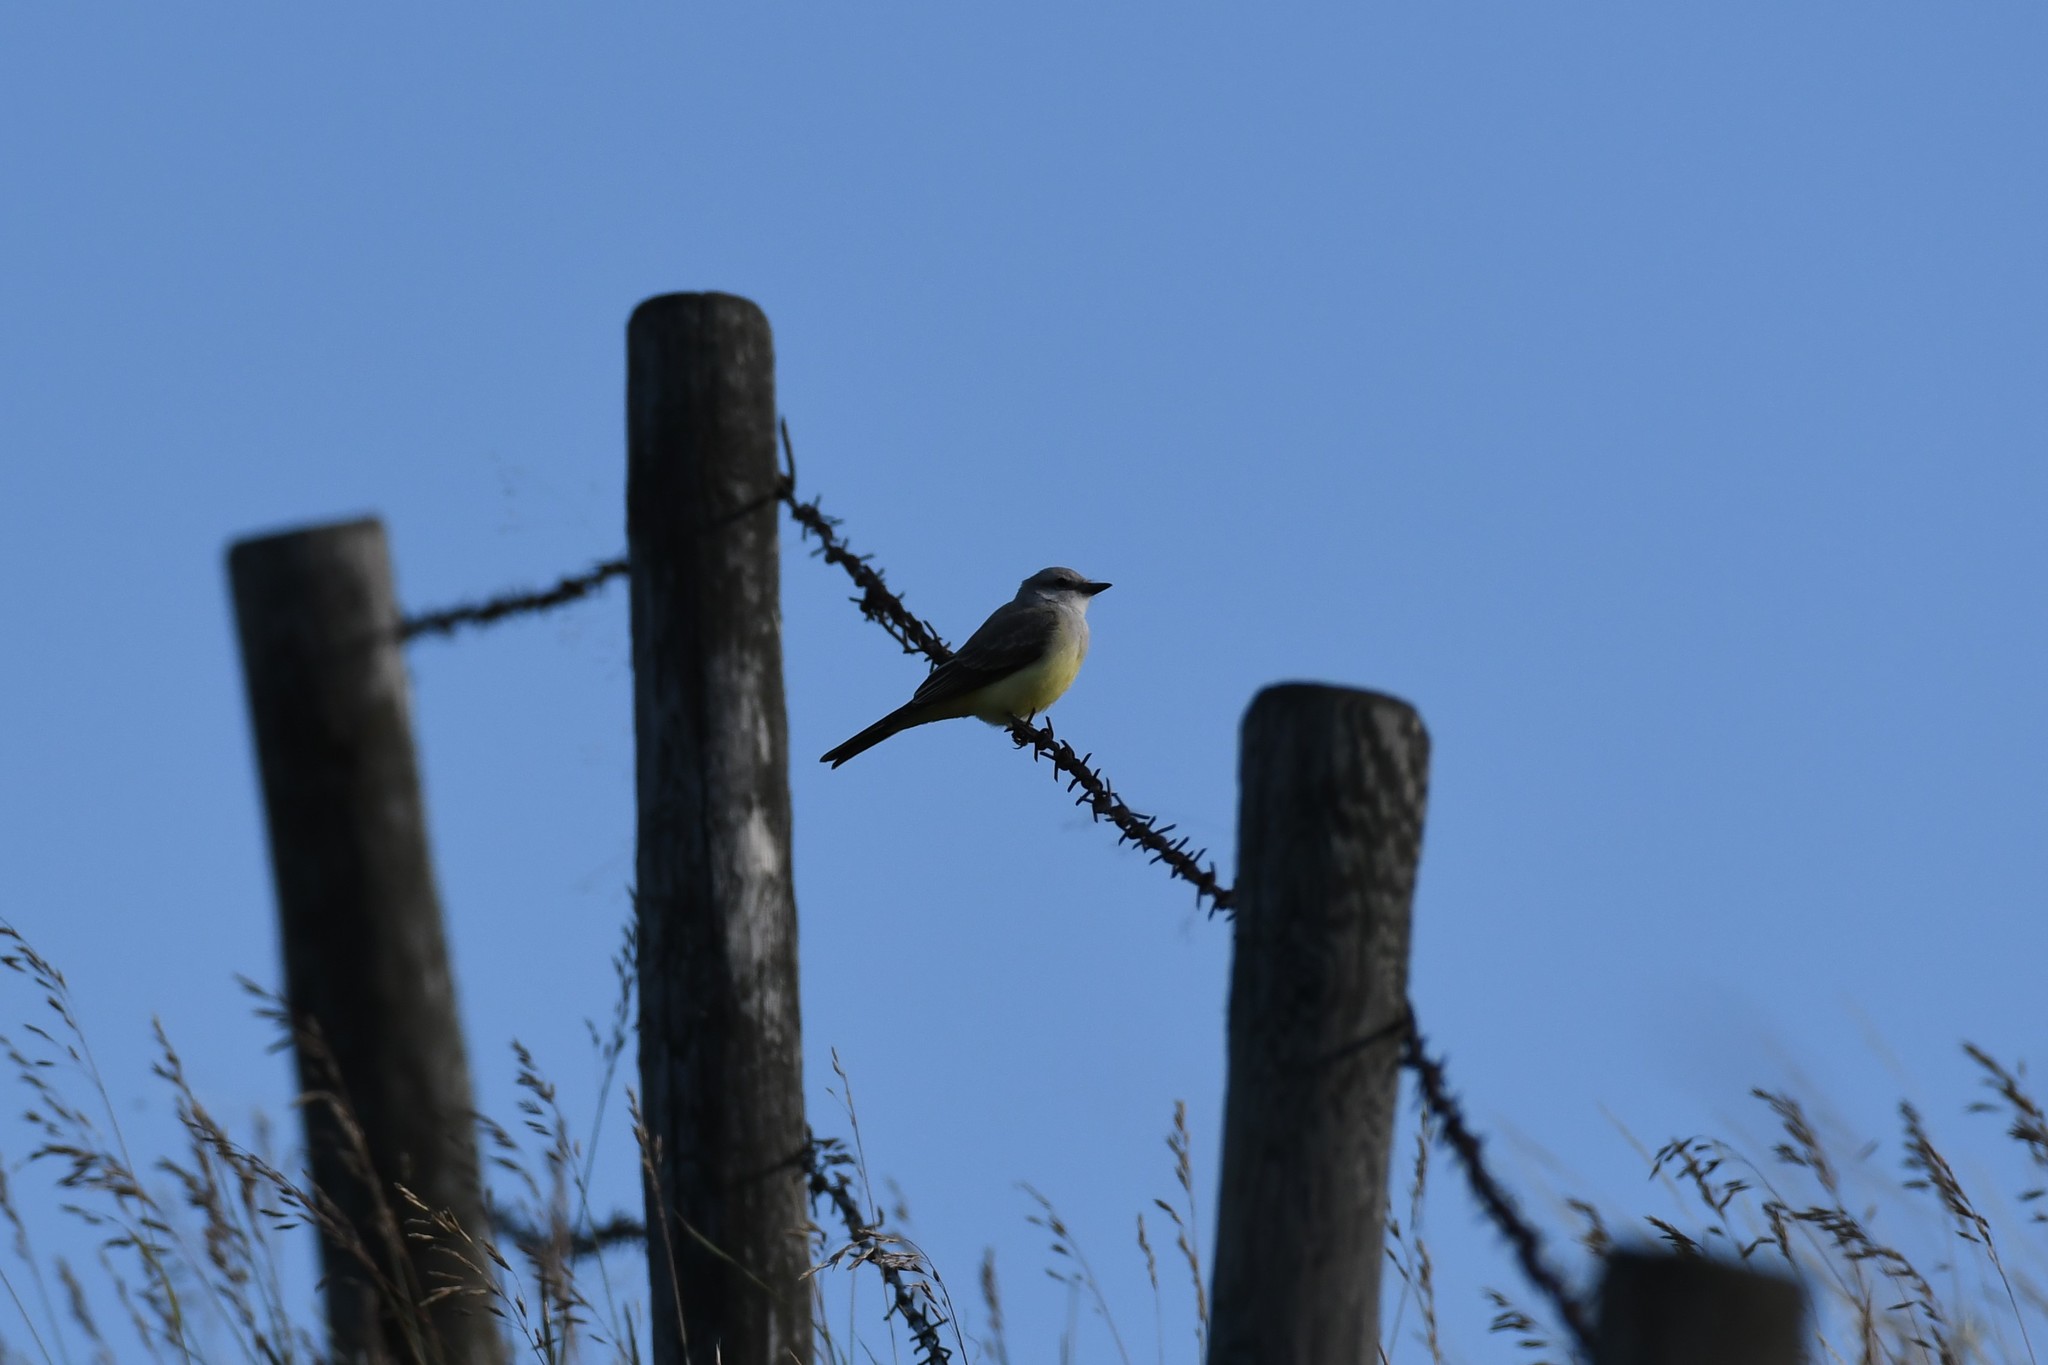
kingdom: Animalia
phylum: Chordata
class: Aves
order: Passeriformes
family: Tyrannidae
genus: Tyrannus
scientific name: Tyrannus verticalis
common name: Western kingbird
